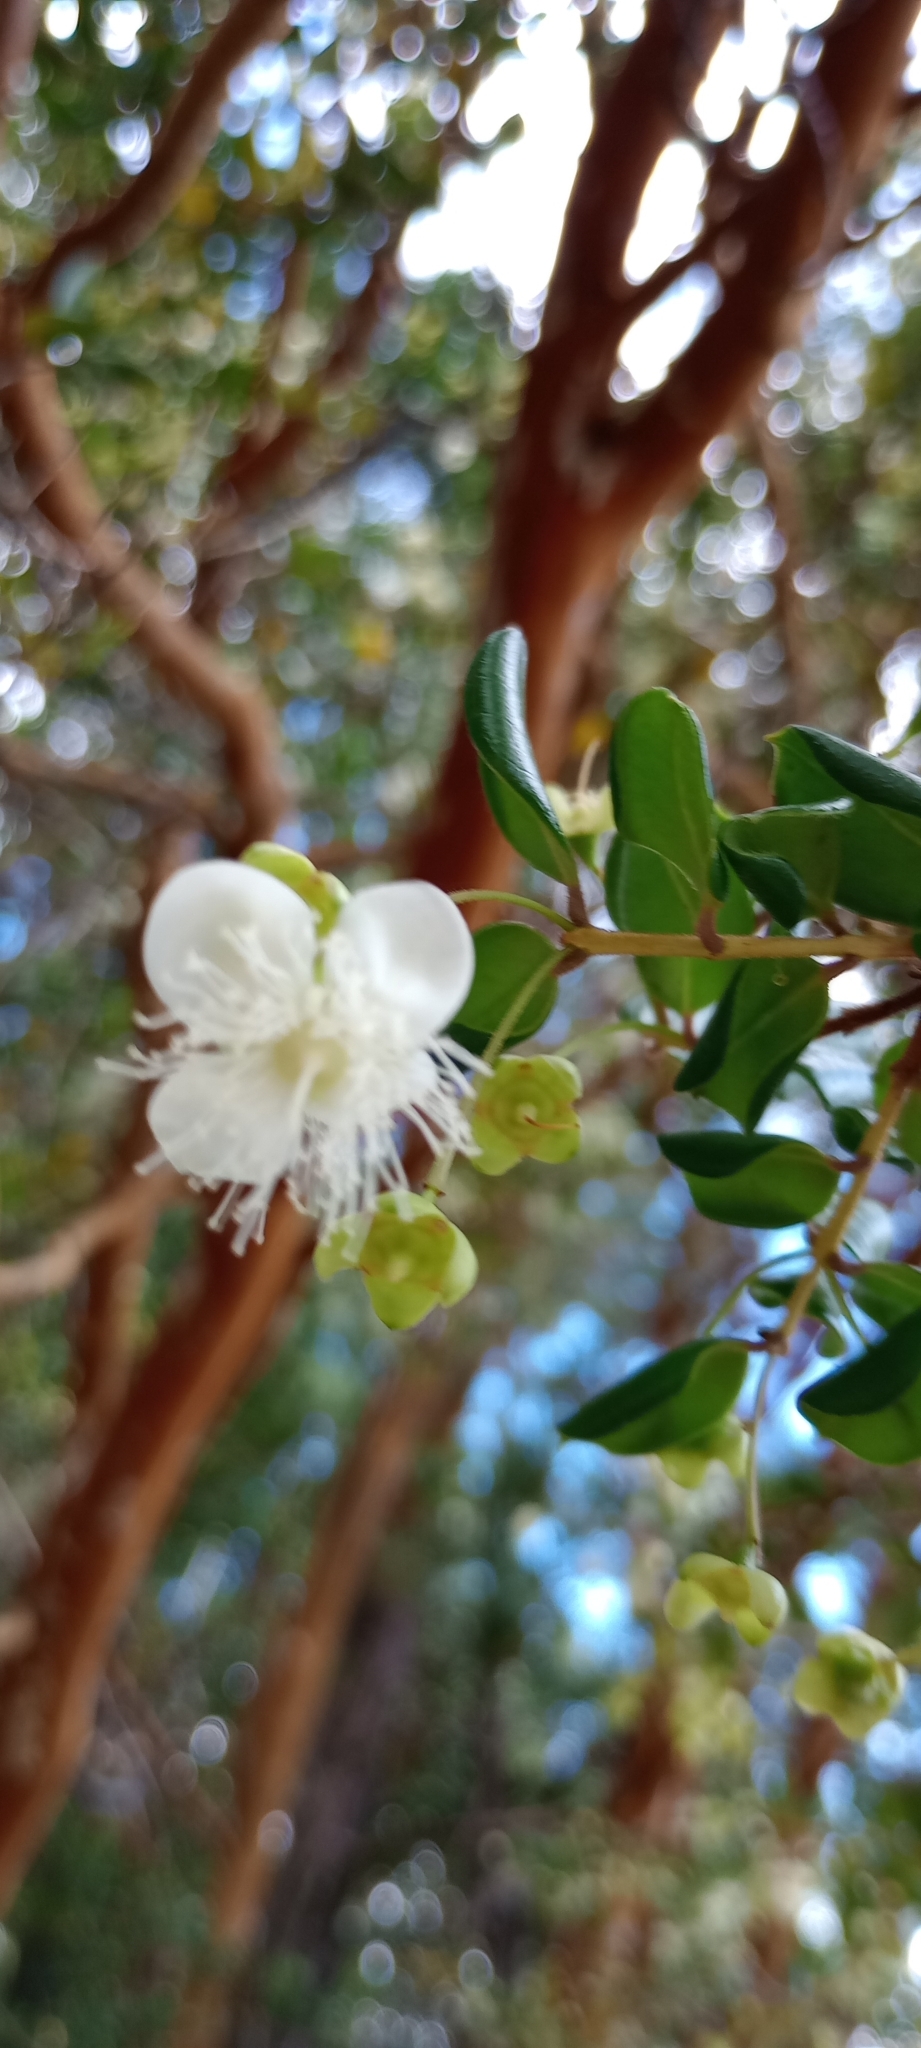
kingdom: Plantae
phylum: Tracheophyta
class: Magnoliopsida
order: Myrtales
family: Myrtaceae
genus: Luma
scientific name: Luma apiculata
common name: Chilean myrtle
